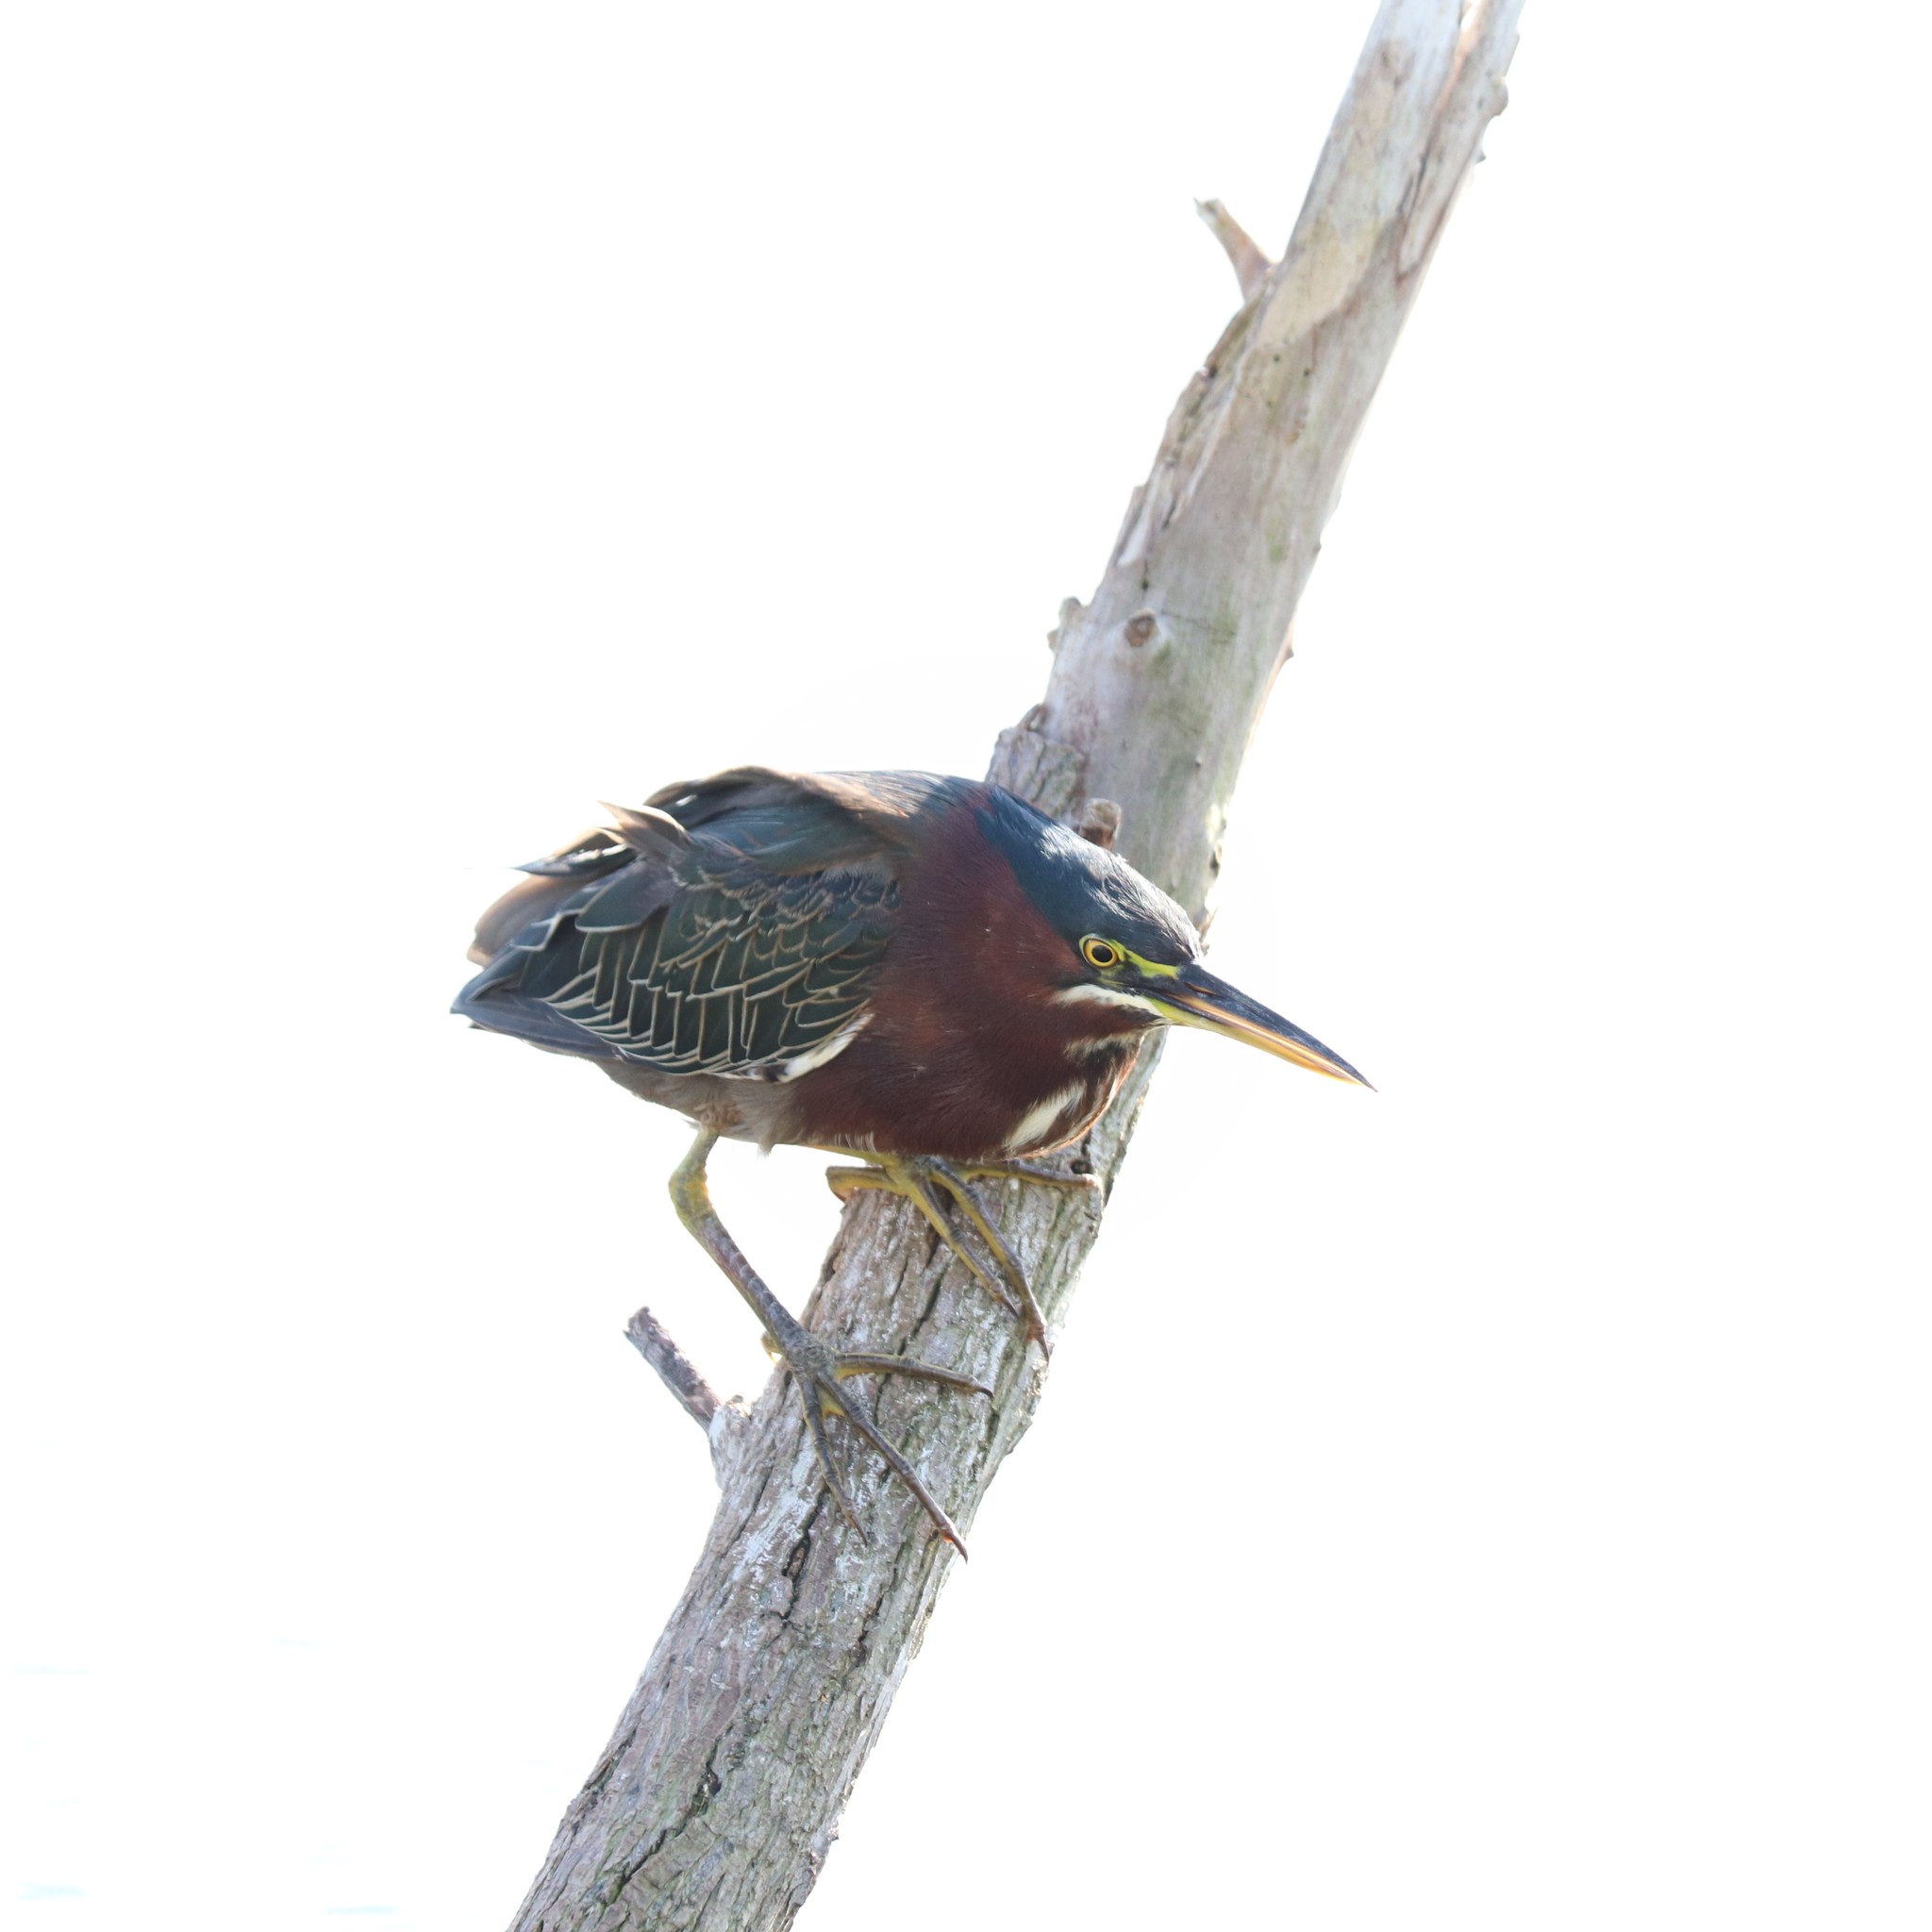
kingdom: Animalia
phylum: Chordata
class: Aves
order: Pelecaniformes
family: Ardeidae
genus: Butorides
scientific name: Butorides virescens
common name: Green heron
